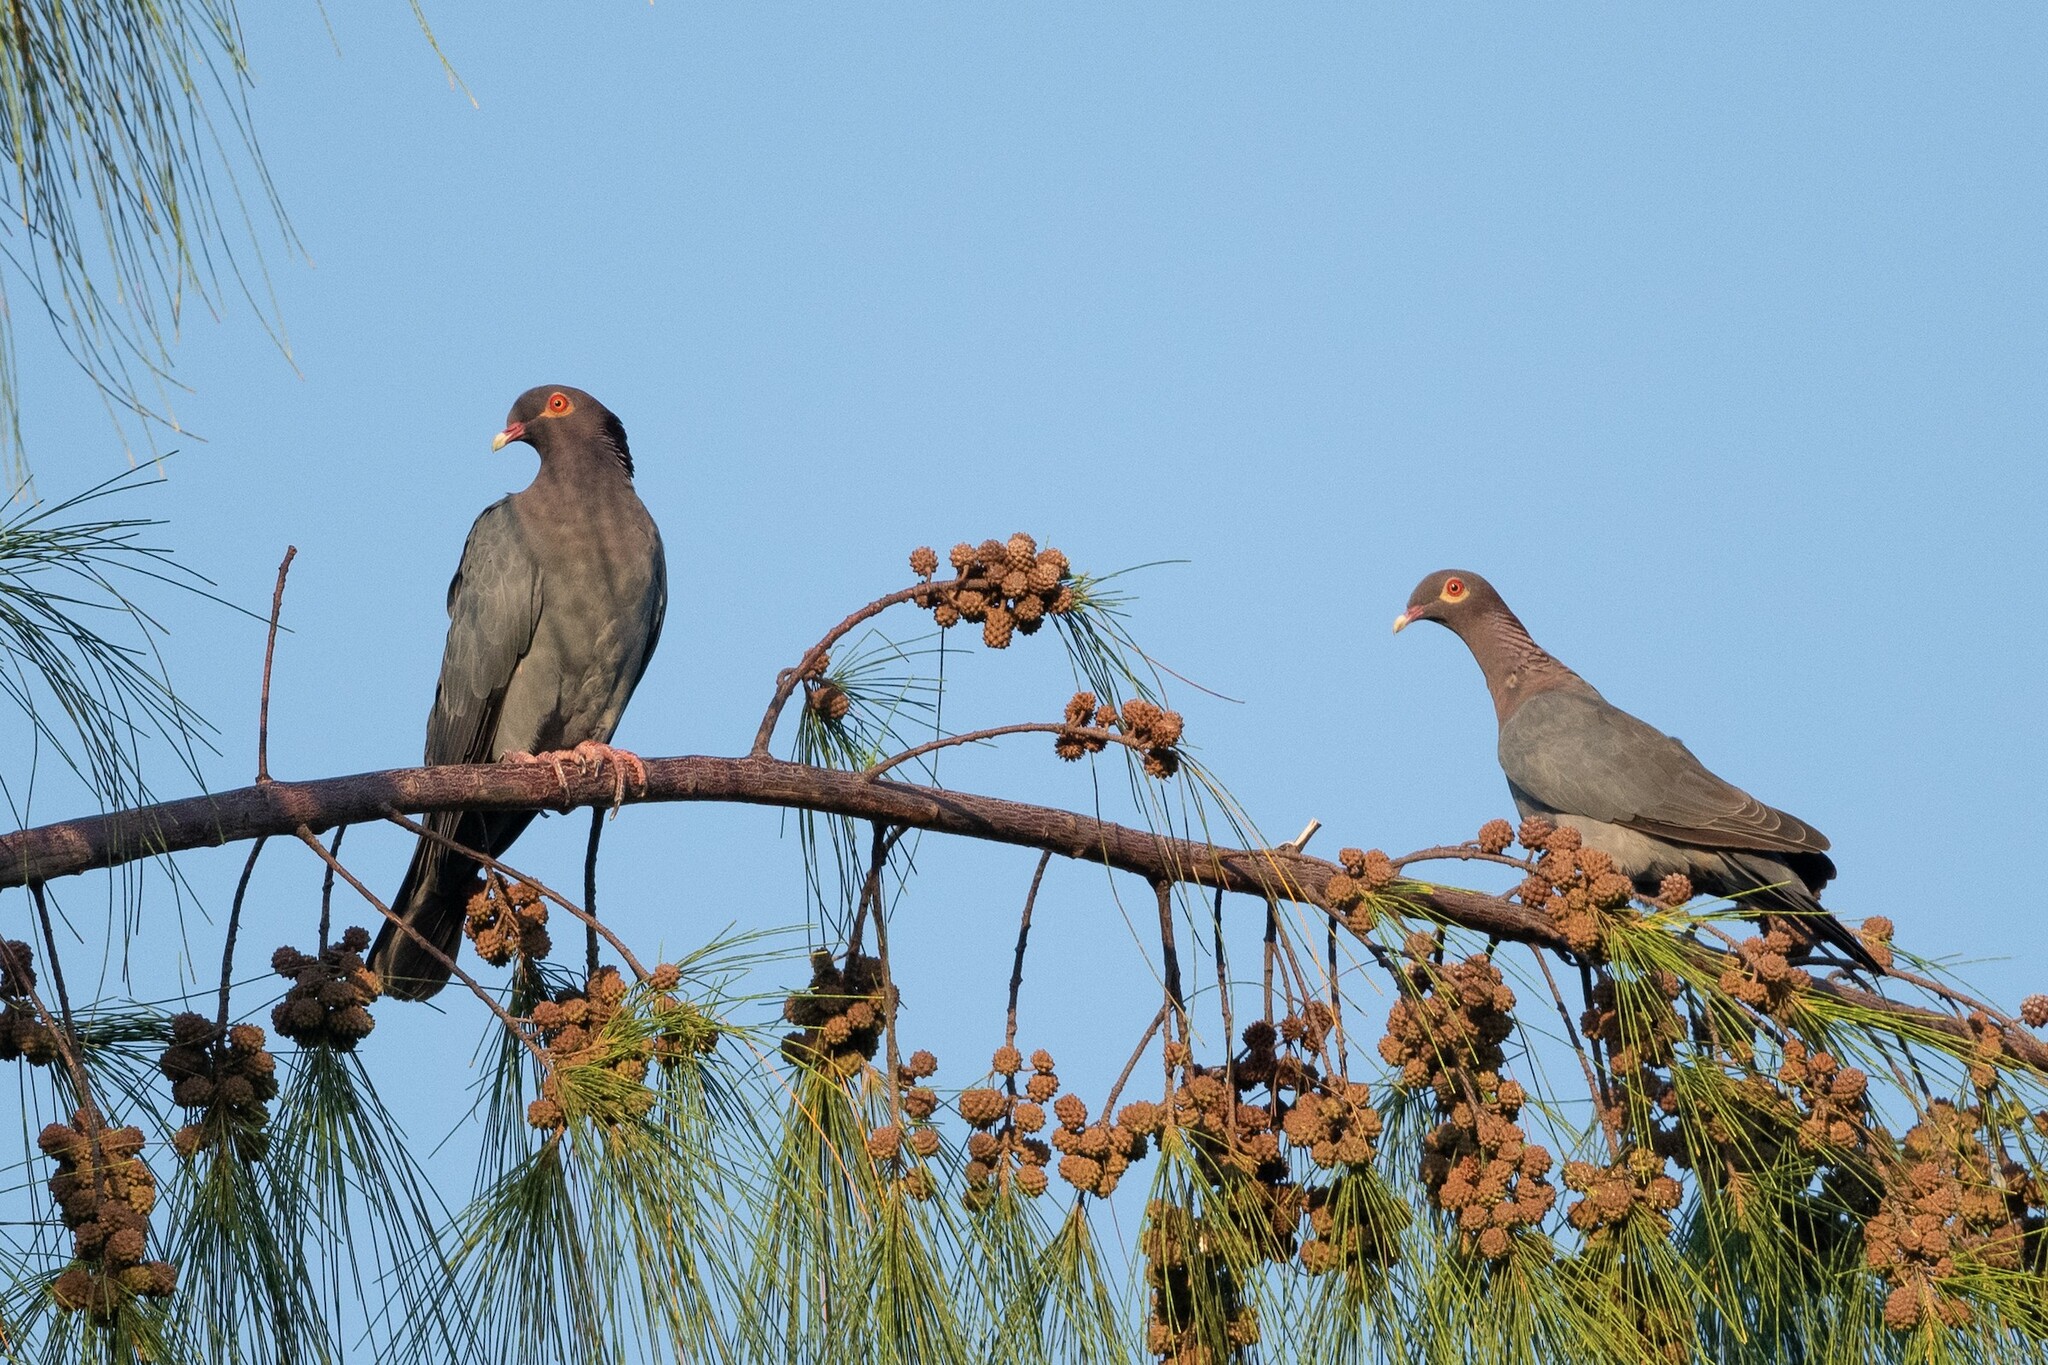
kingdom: Animalia
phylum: Chordata
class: Aves
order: Columbiformes
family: Columbidae
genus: Patagioenas
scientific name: Patagioenas squamosa
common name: Scaly-naped pigeon
